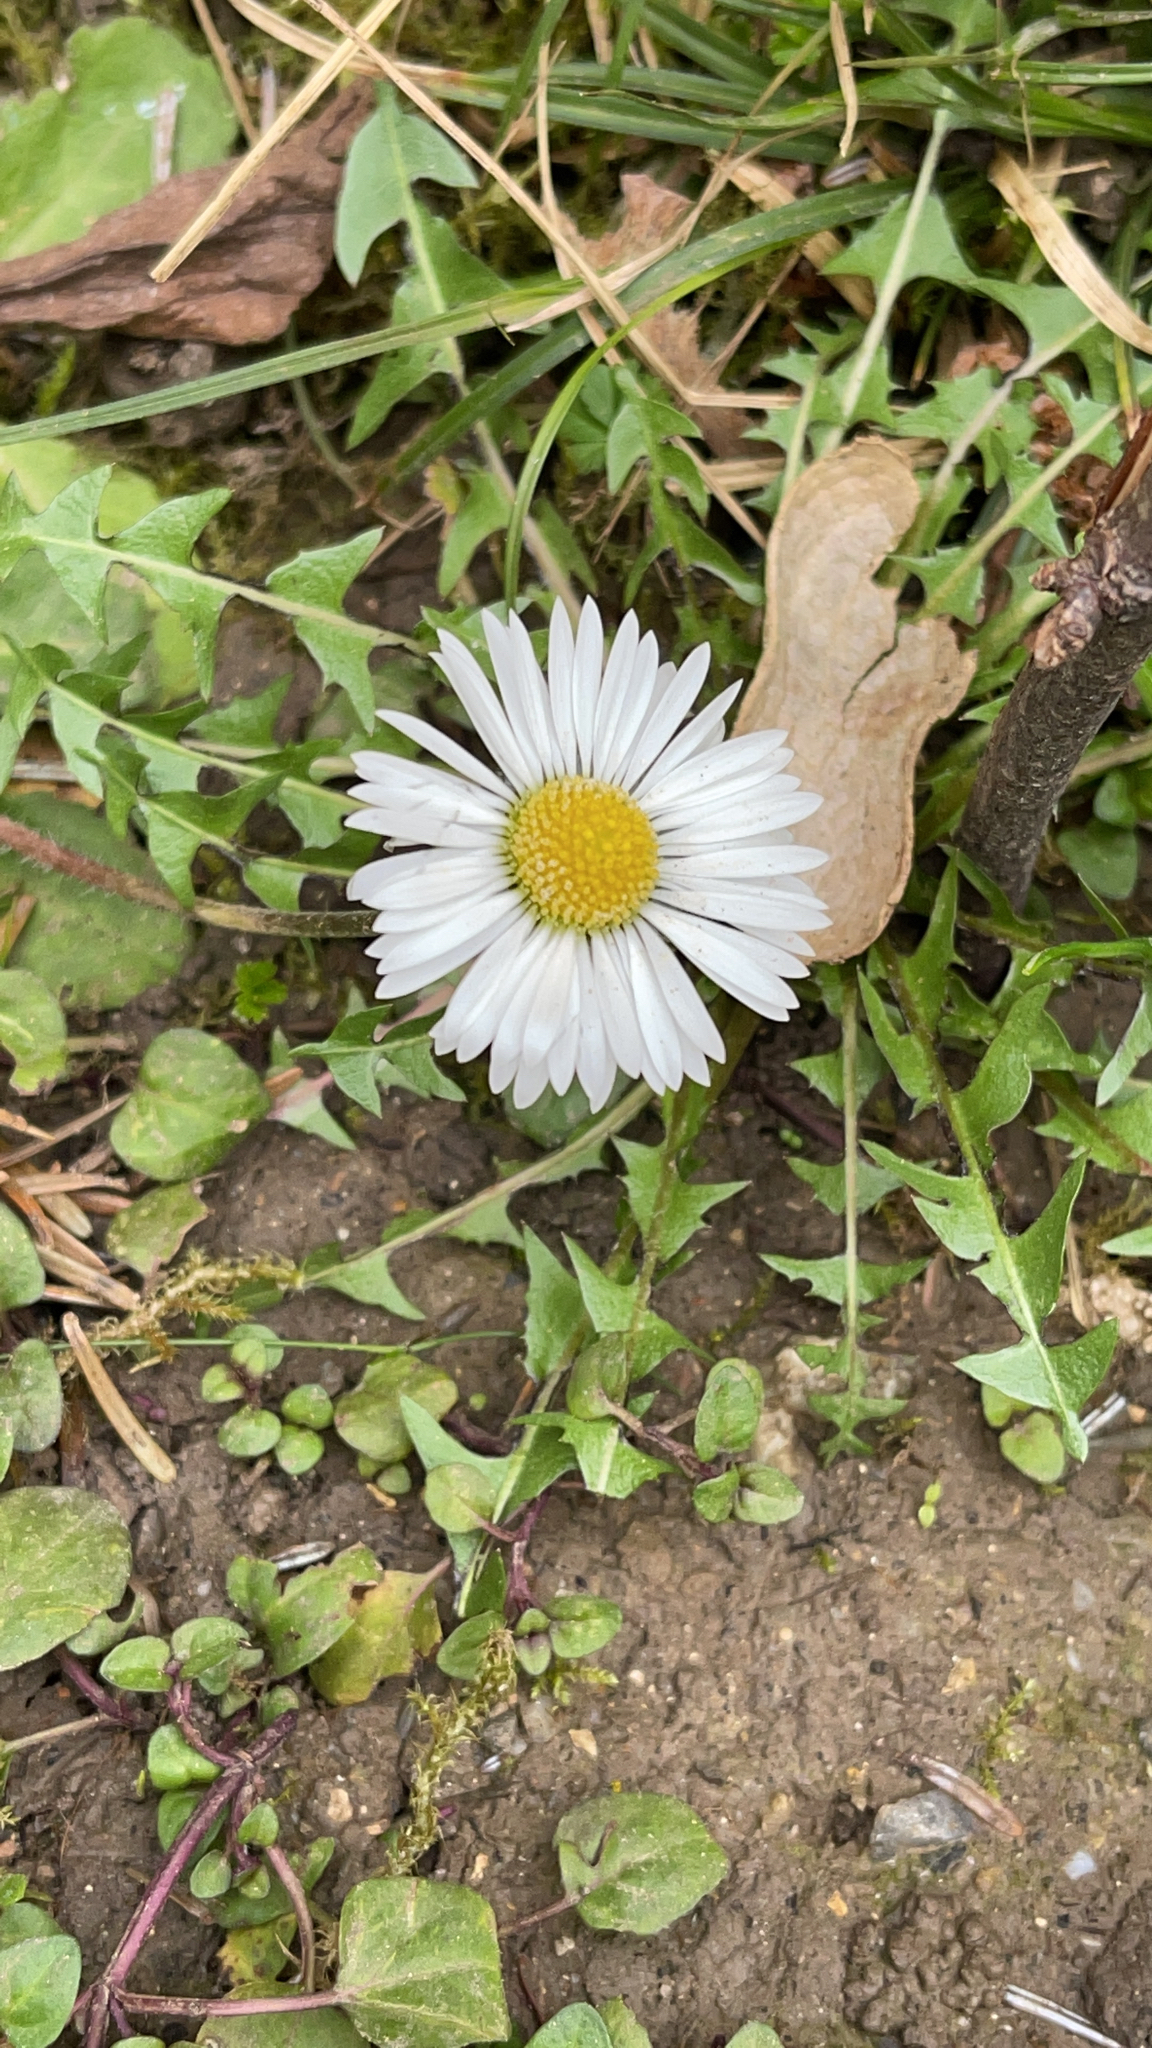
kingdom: Plantae
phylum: Tracheophyta
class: Magnoliopsida
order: Asterales
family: Asteraceae
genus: Bellis
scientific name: Bellis perennis
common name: Lawndaisy
